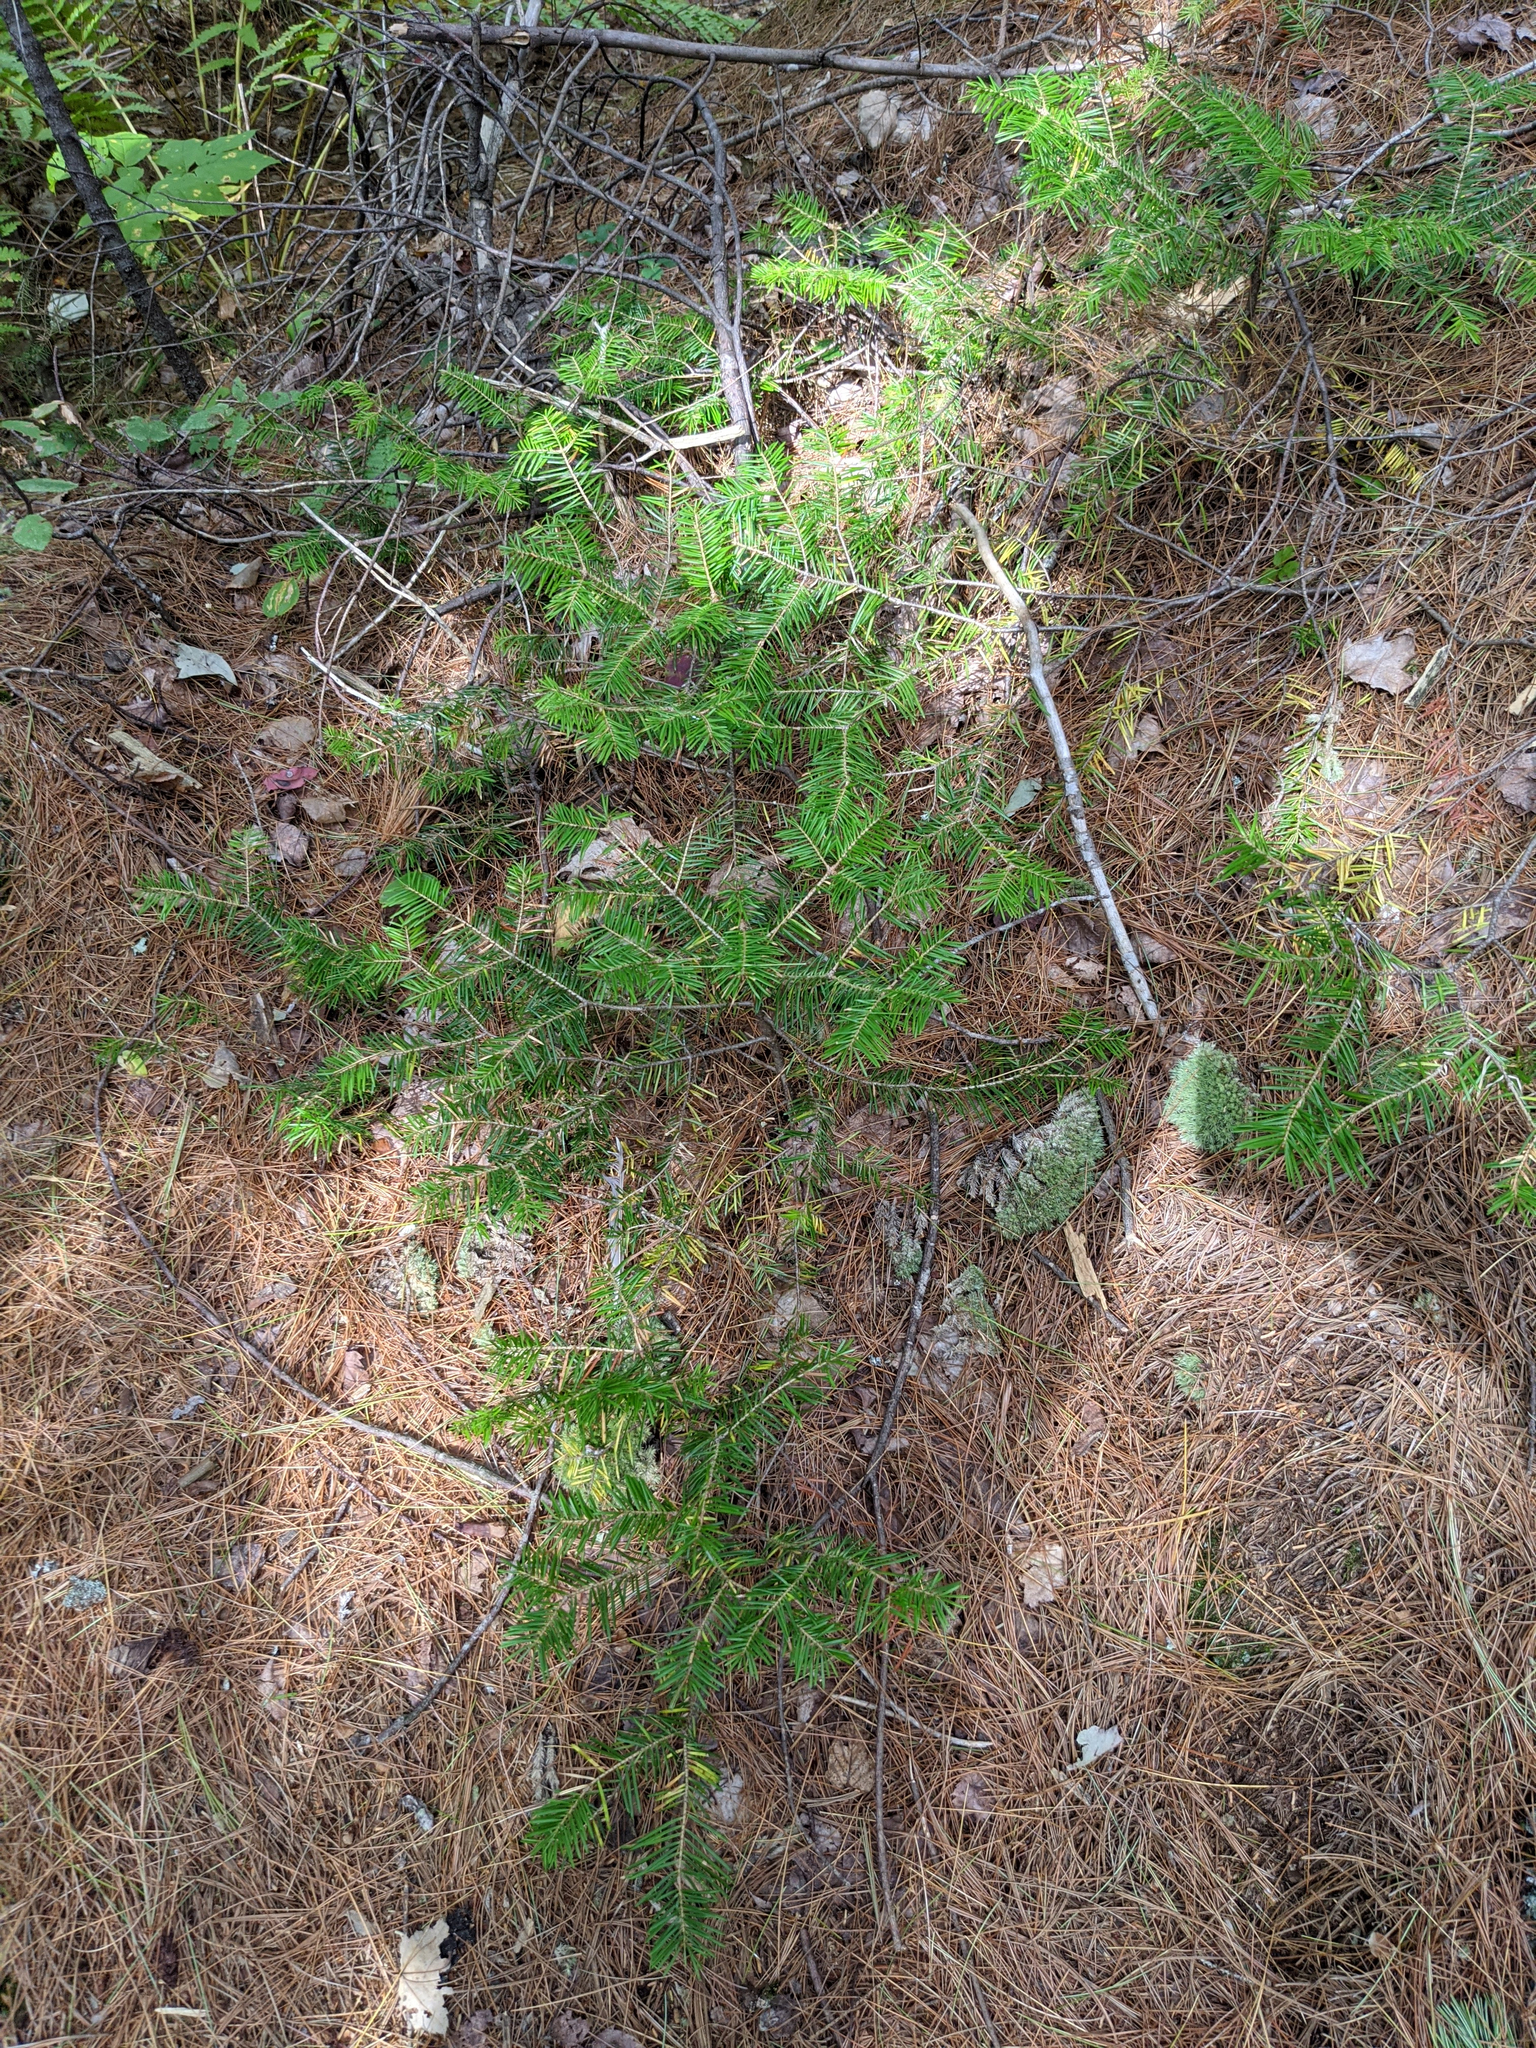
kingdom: Plantae
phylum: Tracheophyta
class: Pinopsida
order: Pinales
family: Pinaceae
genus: Abies
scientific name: Abies balsamea
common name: Balsam fir
